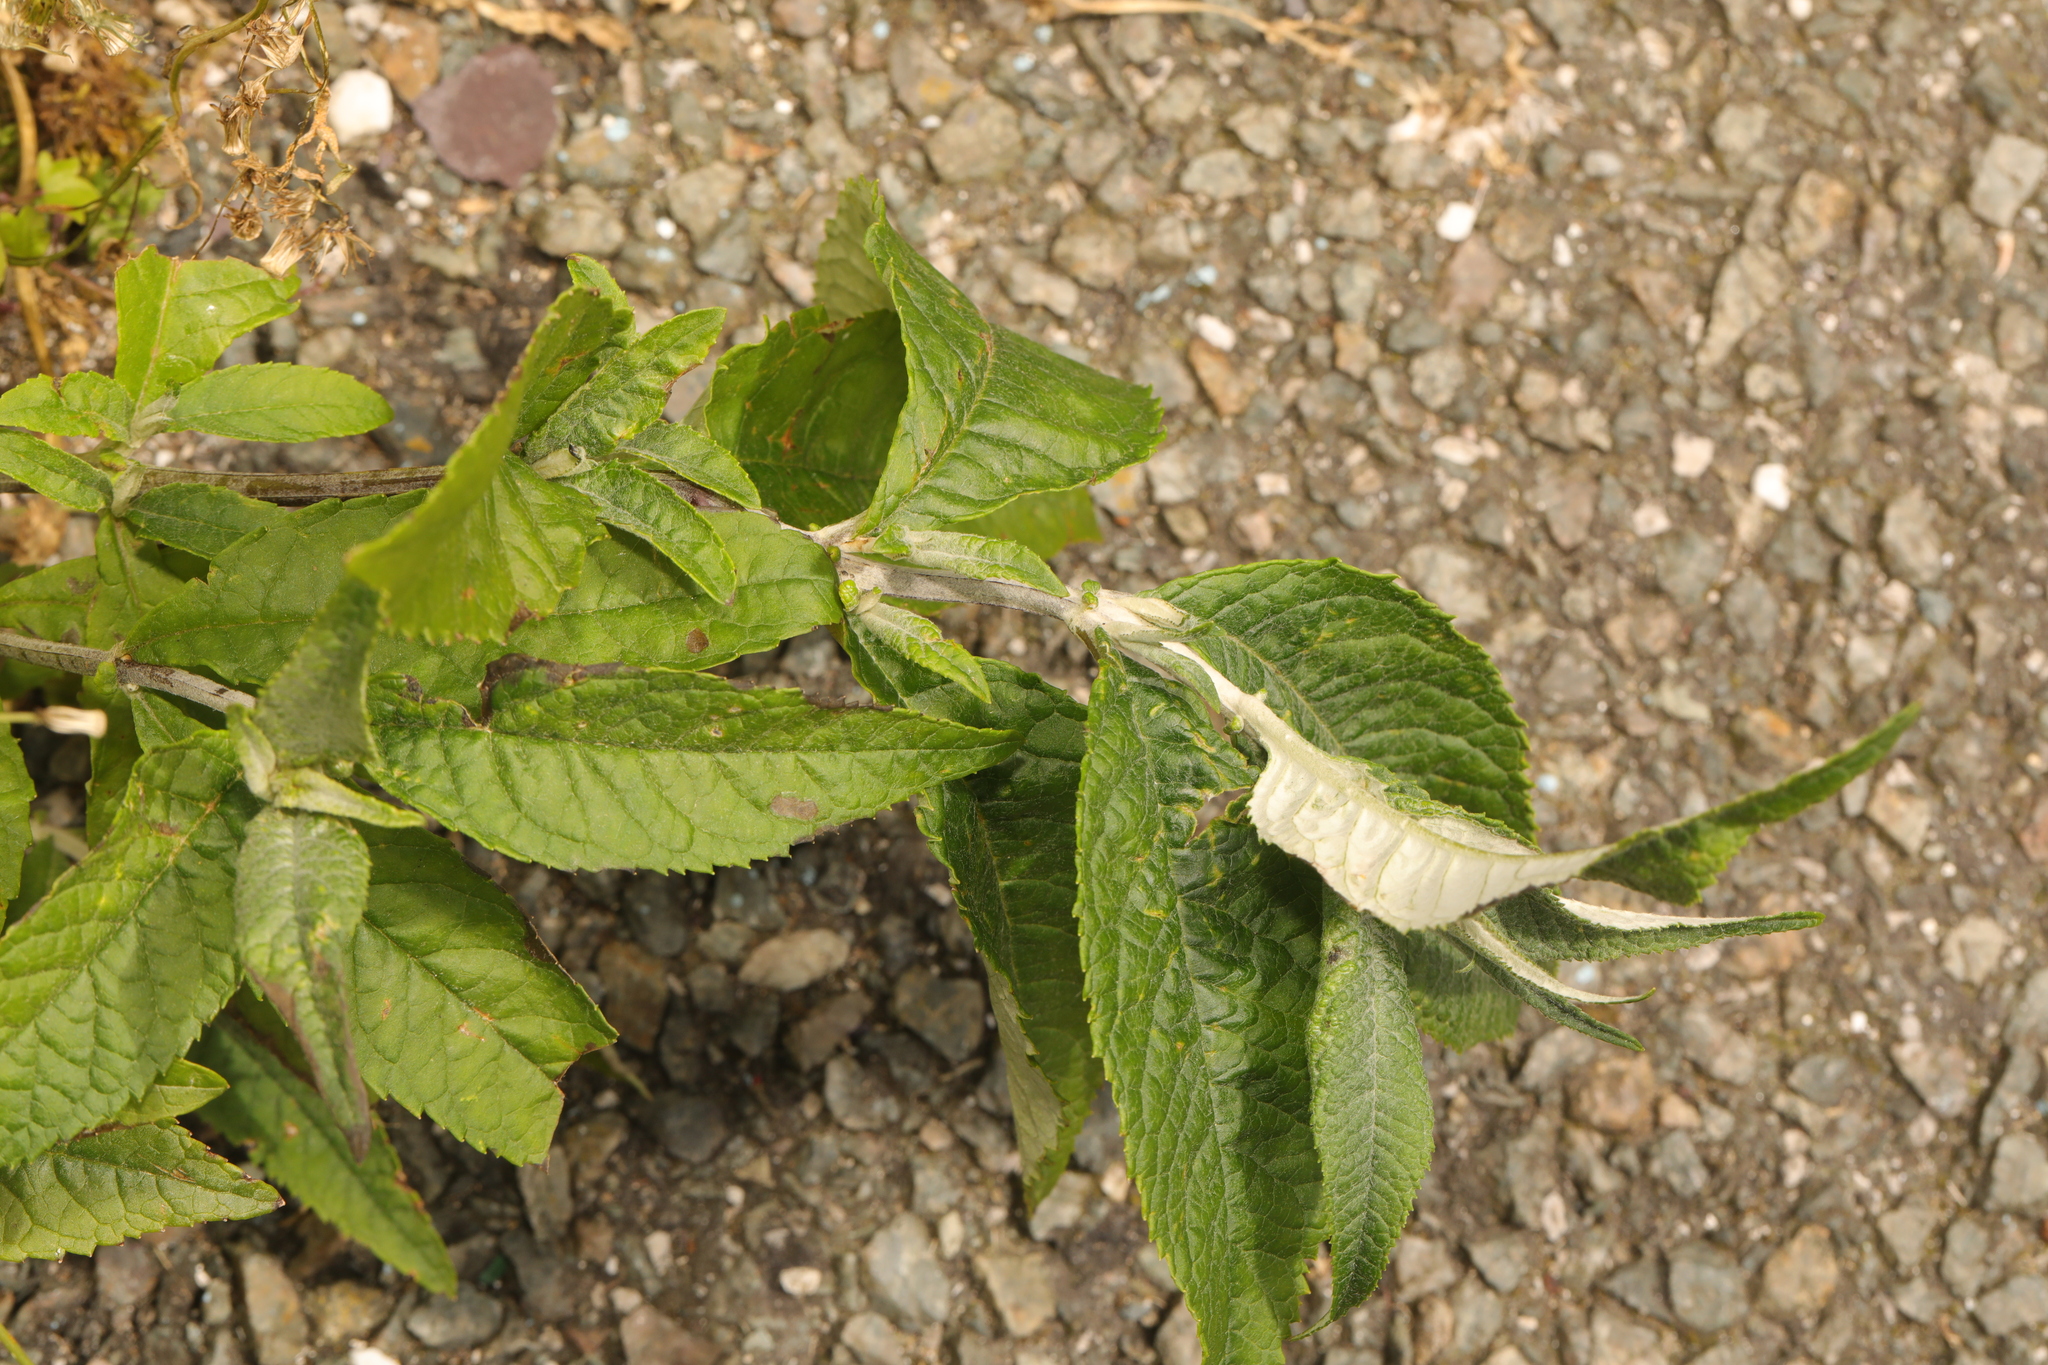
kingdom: Plantae
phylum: Tracheophyta
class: Magnoliopsida
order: Lamiales
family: Scrophulariaceae
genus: Buddleja
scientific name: Buddleja davidii
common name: Butterfly-bush
